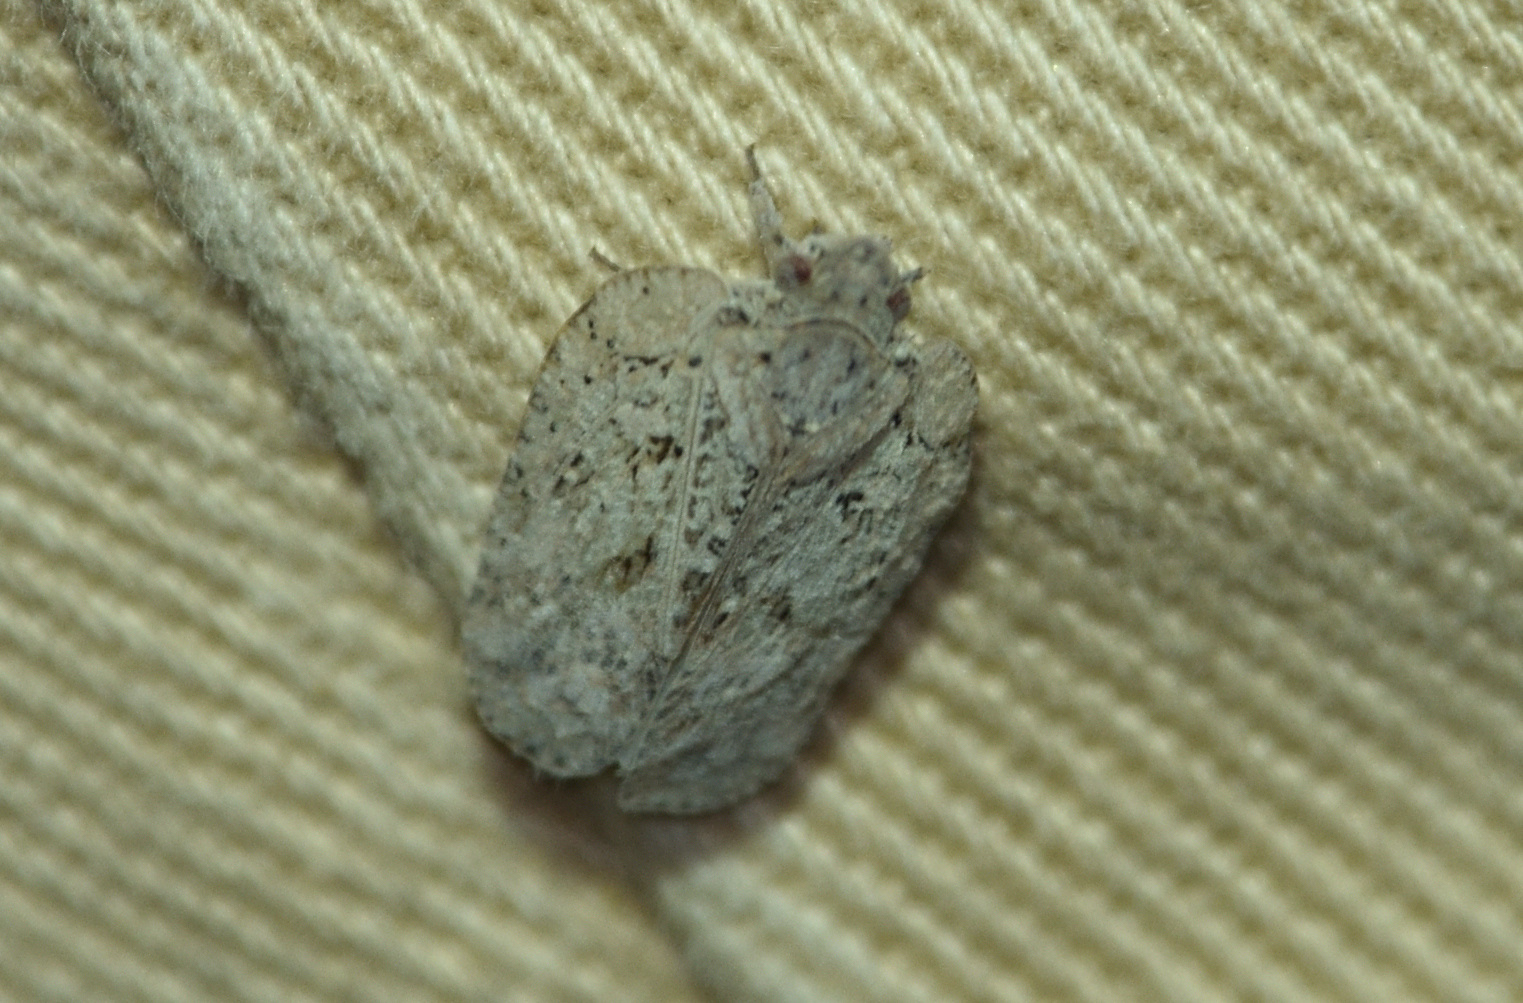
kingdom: Animalia
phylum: Arthropoda
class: Insecta
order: Hemiptera
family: Flatidae
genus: Flatoidinus
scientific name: Flatoidinus punctatus
